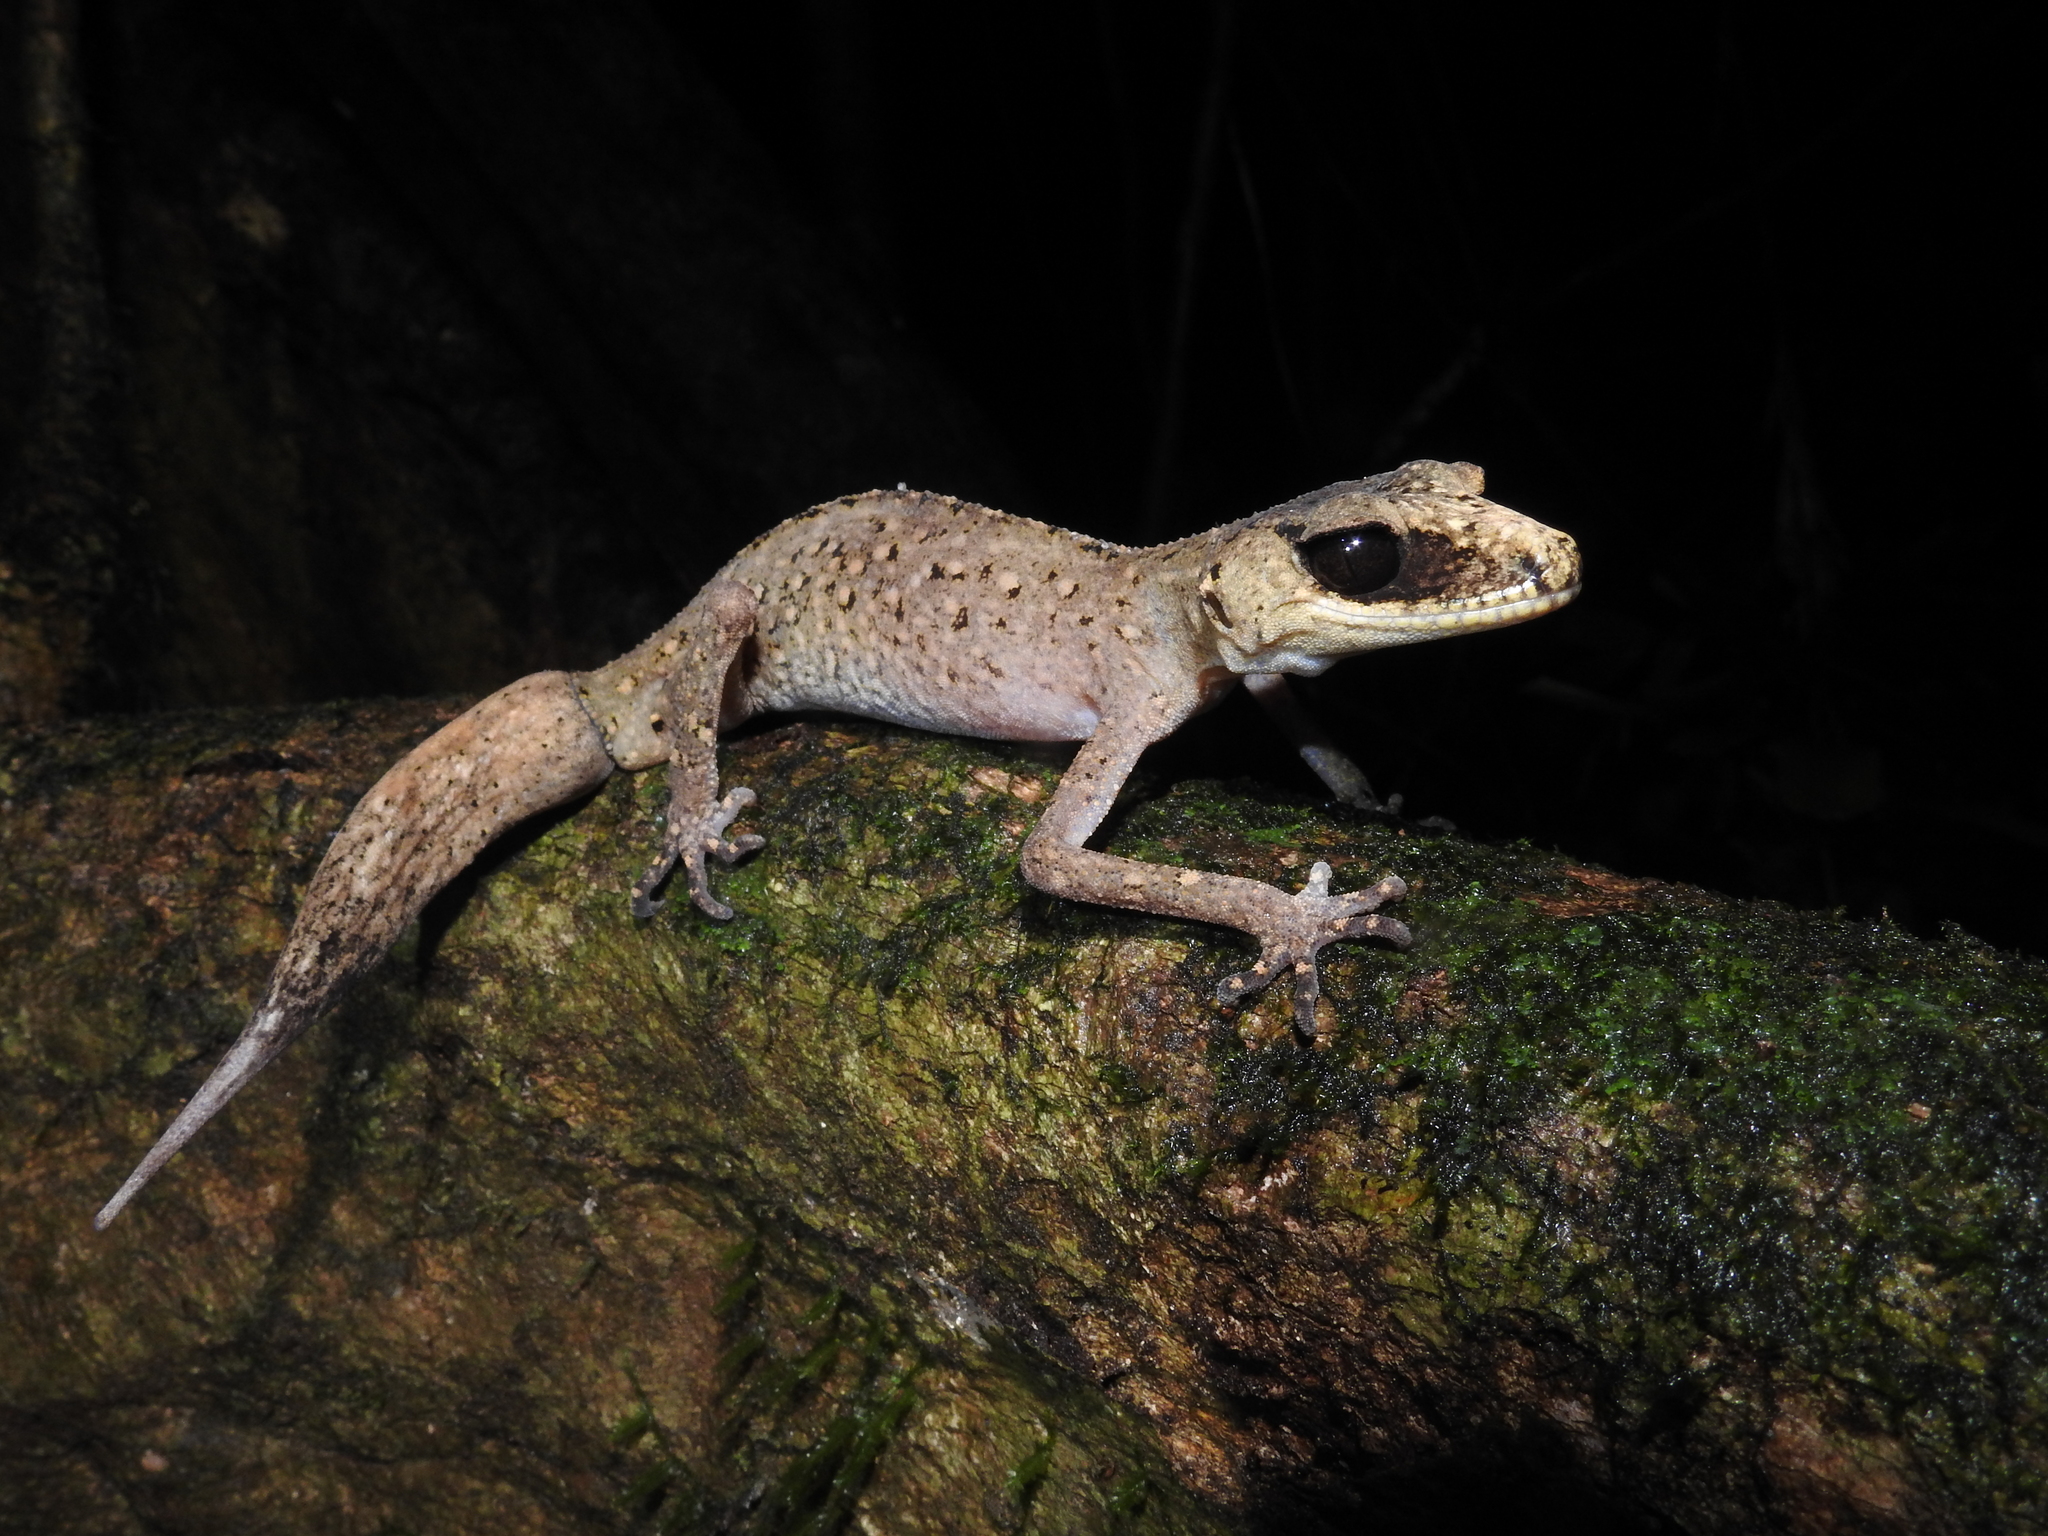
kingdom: Animalia
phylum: Chordata
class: Squamata
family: Carphodactylidae
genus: Carphodactylus
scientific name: Carphodactylus laevis
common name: Chameleon gecko
